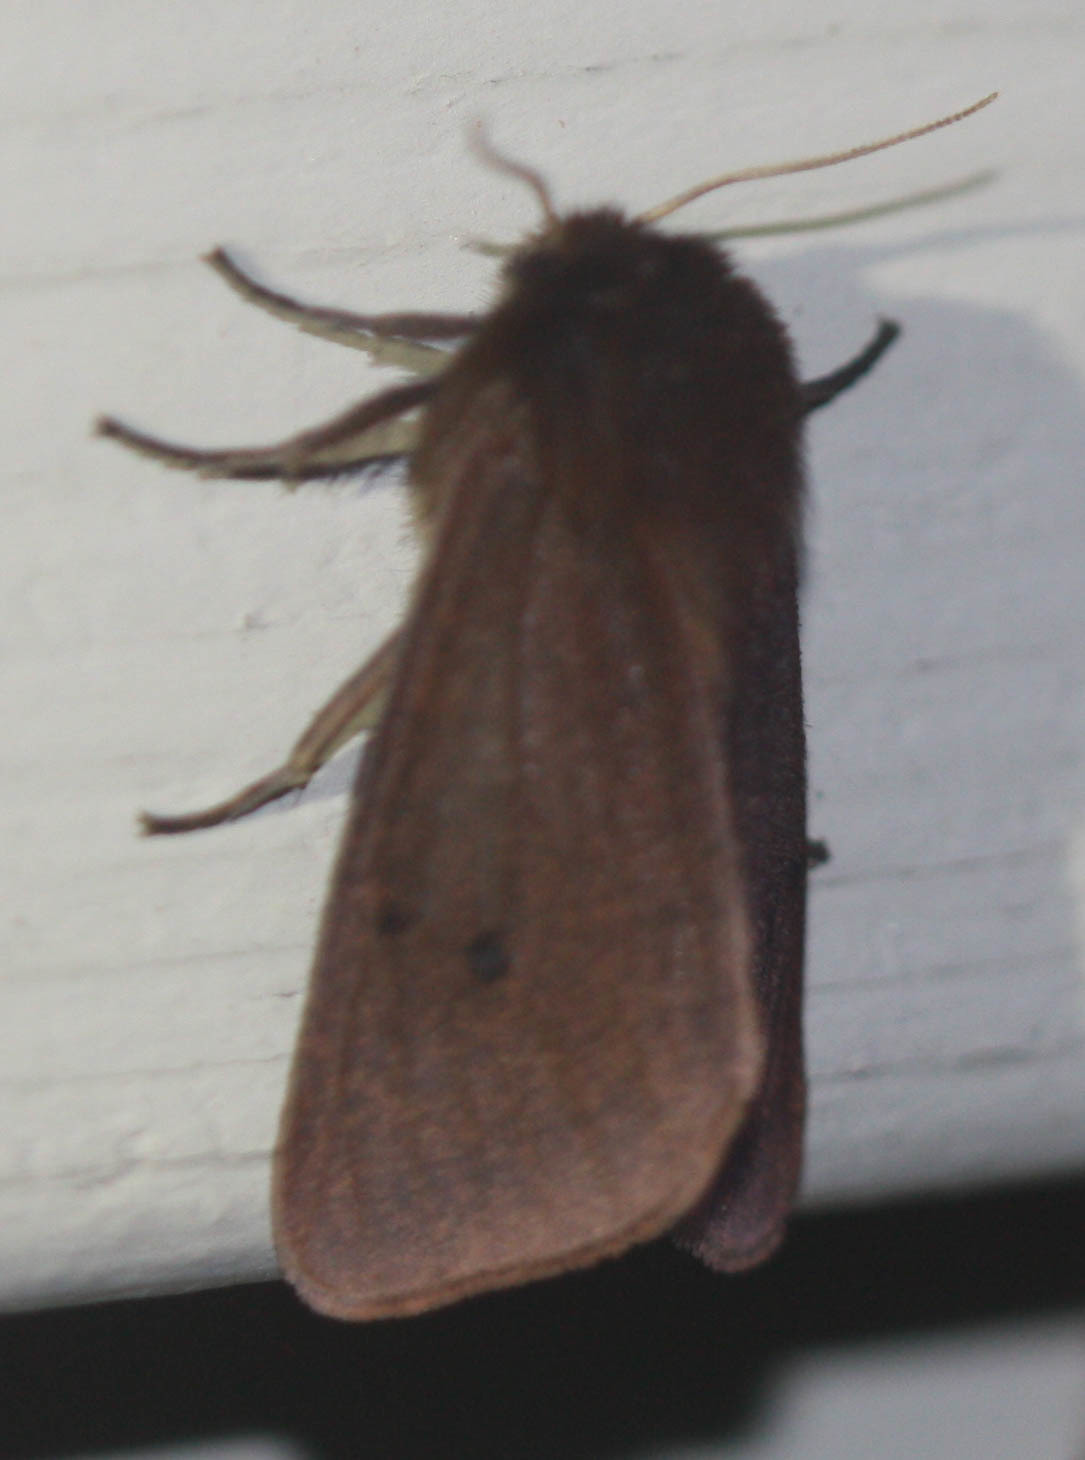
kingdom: Animalia
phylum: Arthropoda
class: Insecta
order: Lepidoptera
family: Erebidae
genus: Phragmatobia
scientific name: Phragmatobia fuliginosa
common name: Ruby tiger
